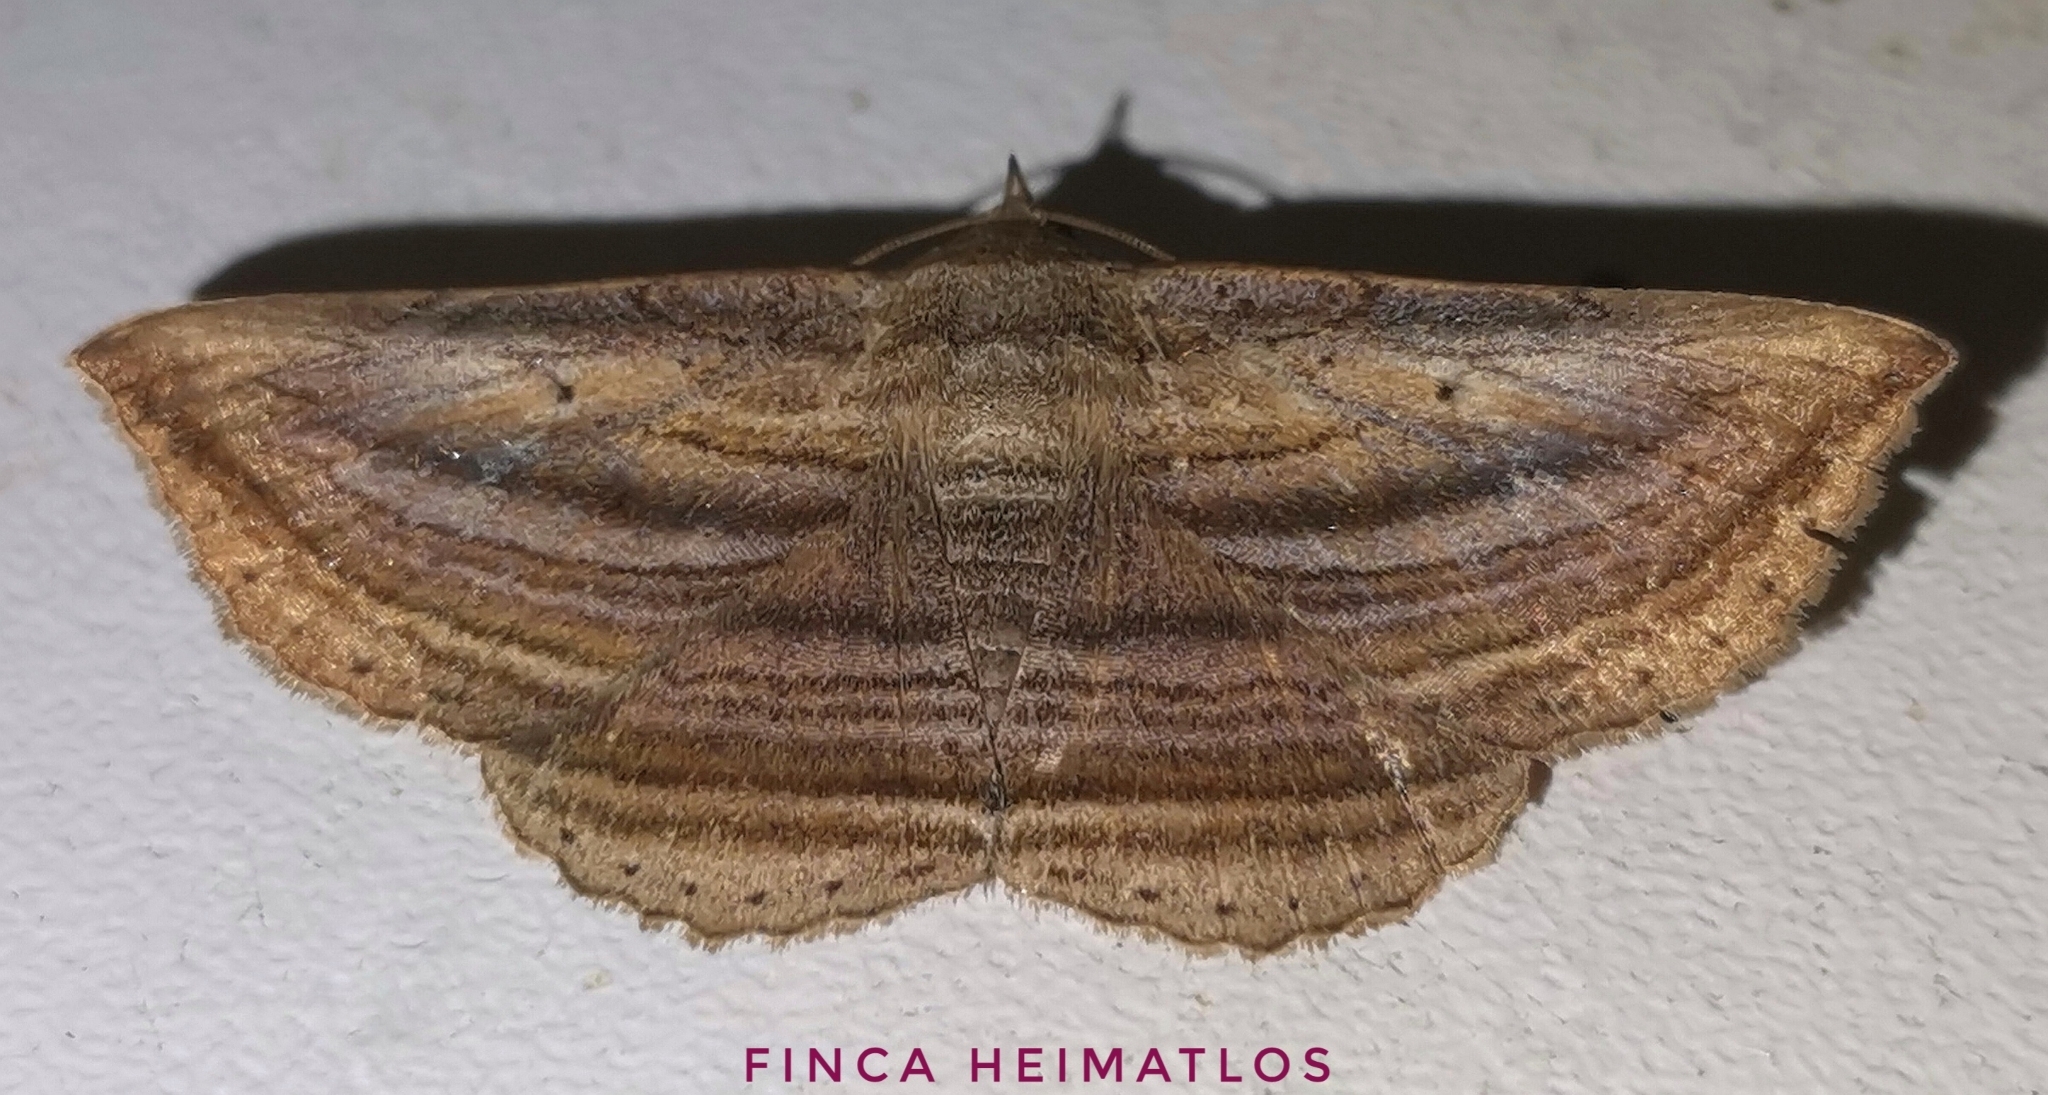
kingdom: Animalia
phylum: Arthropoda
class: Insecta
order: Lepidoptera
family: Erebidae
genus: Itomia
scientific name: Itomia multilinea
